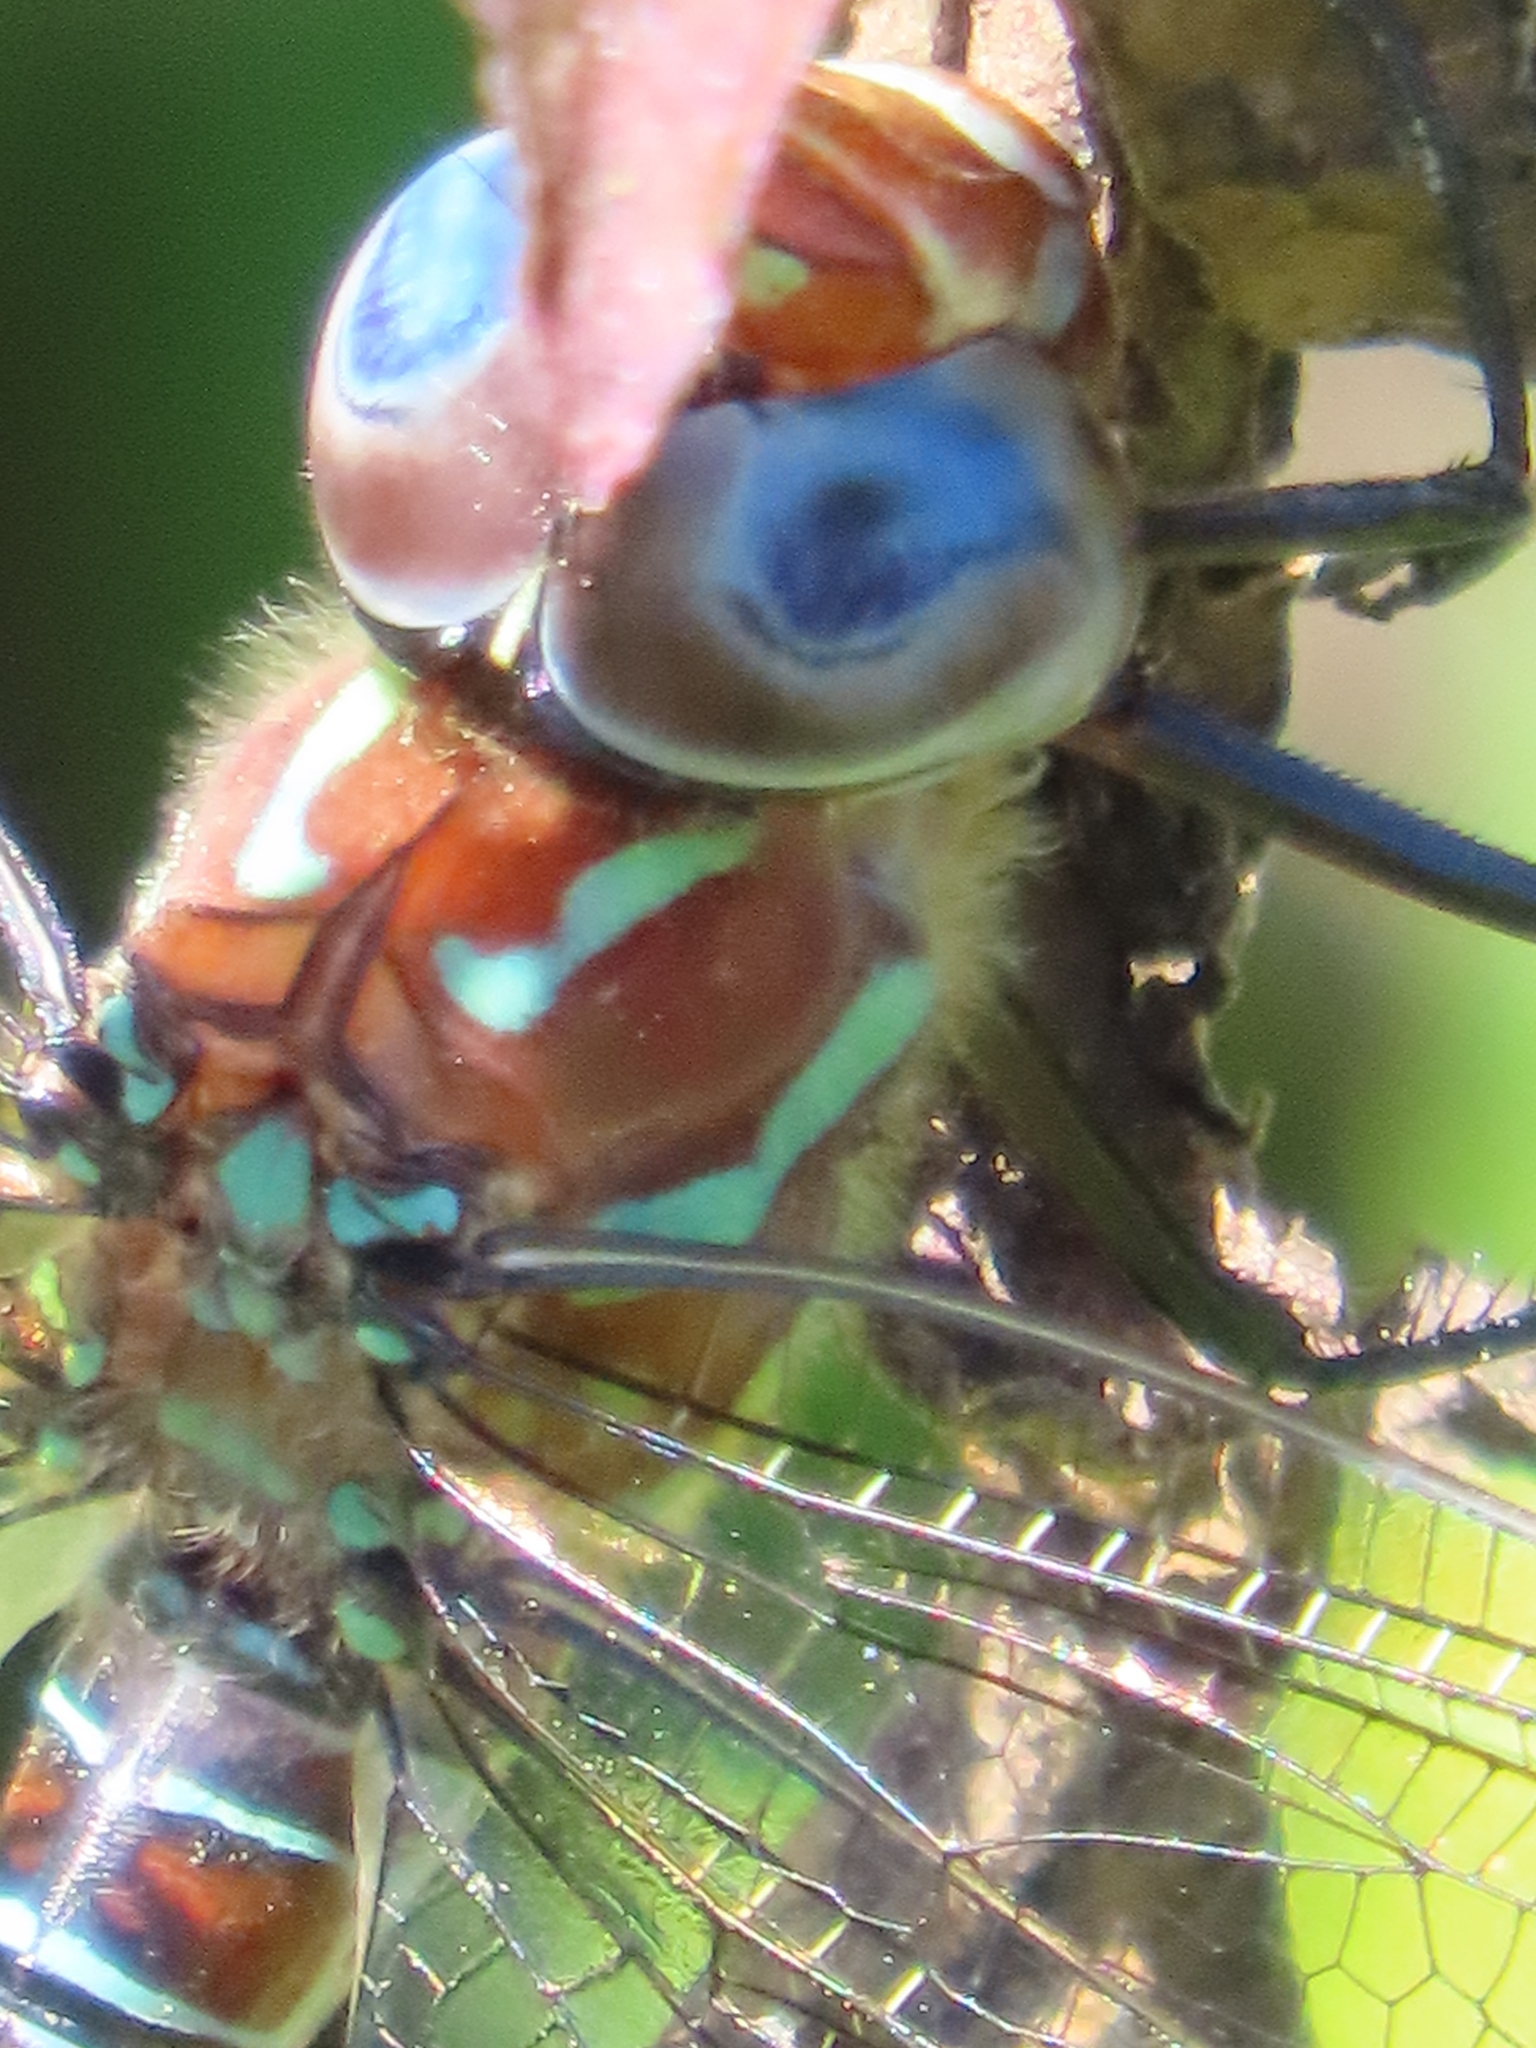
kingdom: Animalia
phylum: Arthropoda
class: Insecta
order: Odonata
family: Aeshnidae
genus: Epiaeschna
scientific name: Epiaeschna heros
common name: Swamp darner
